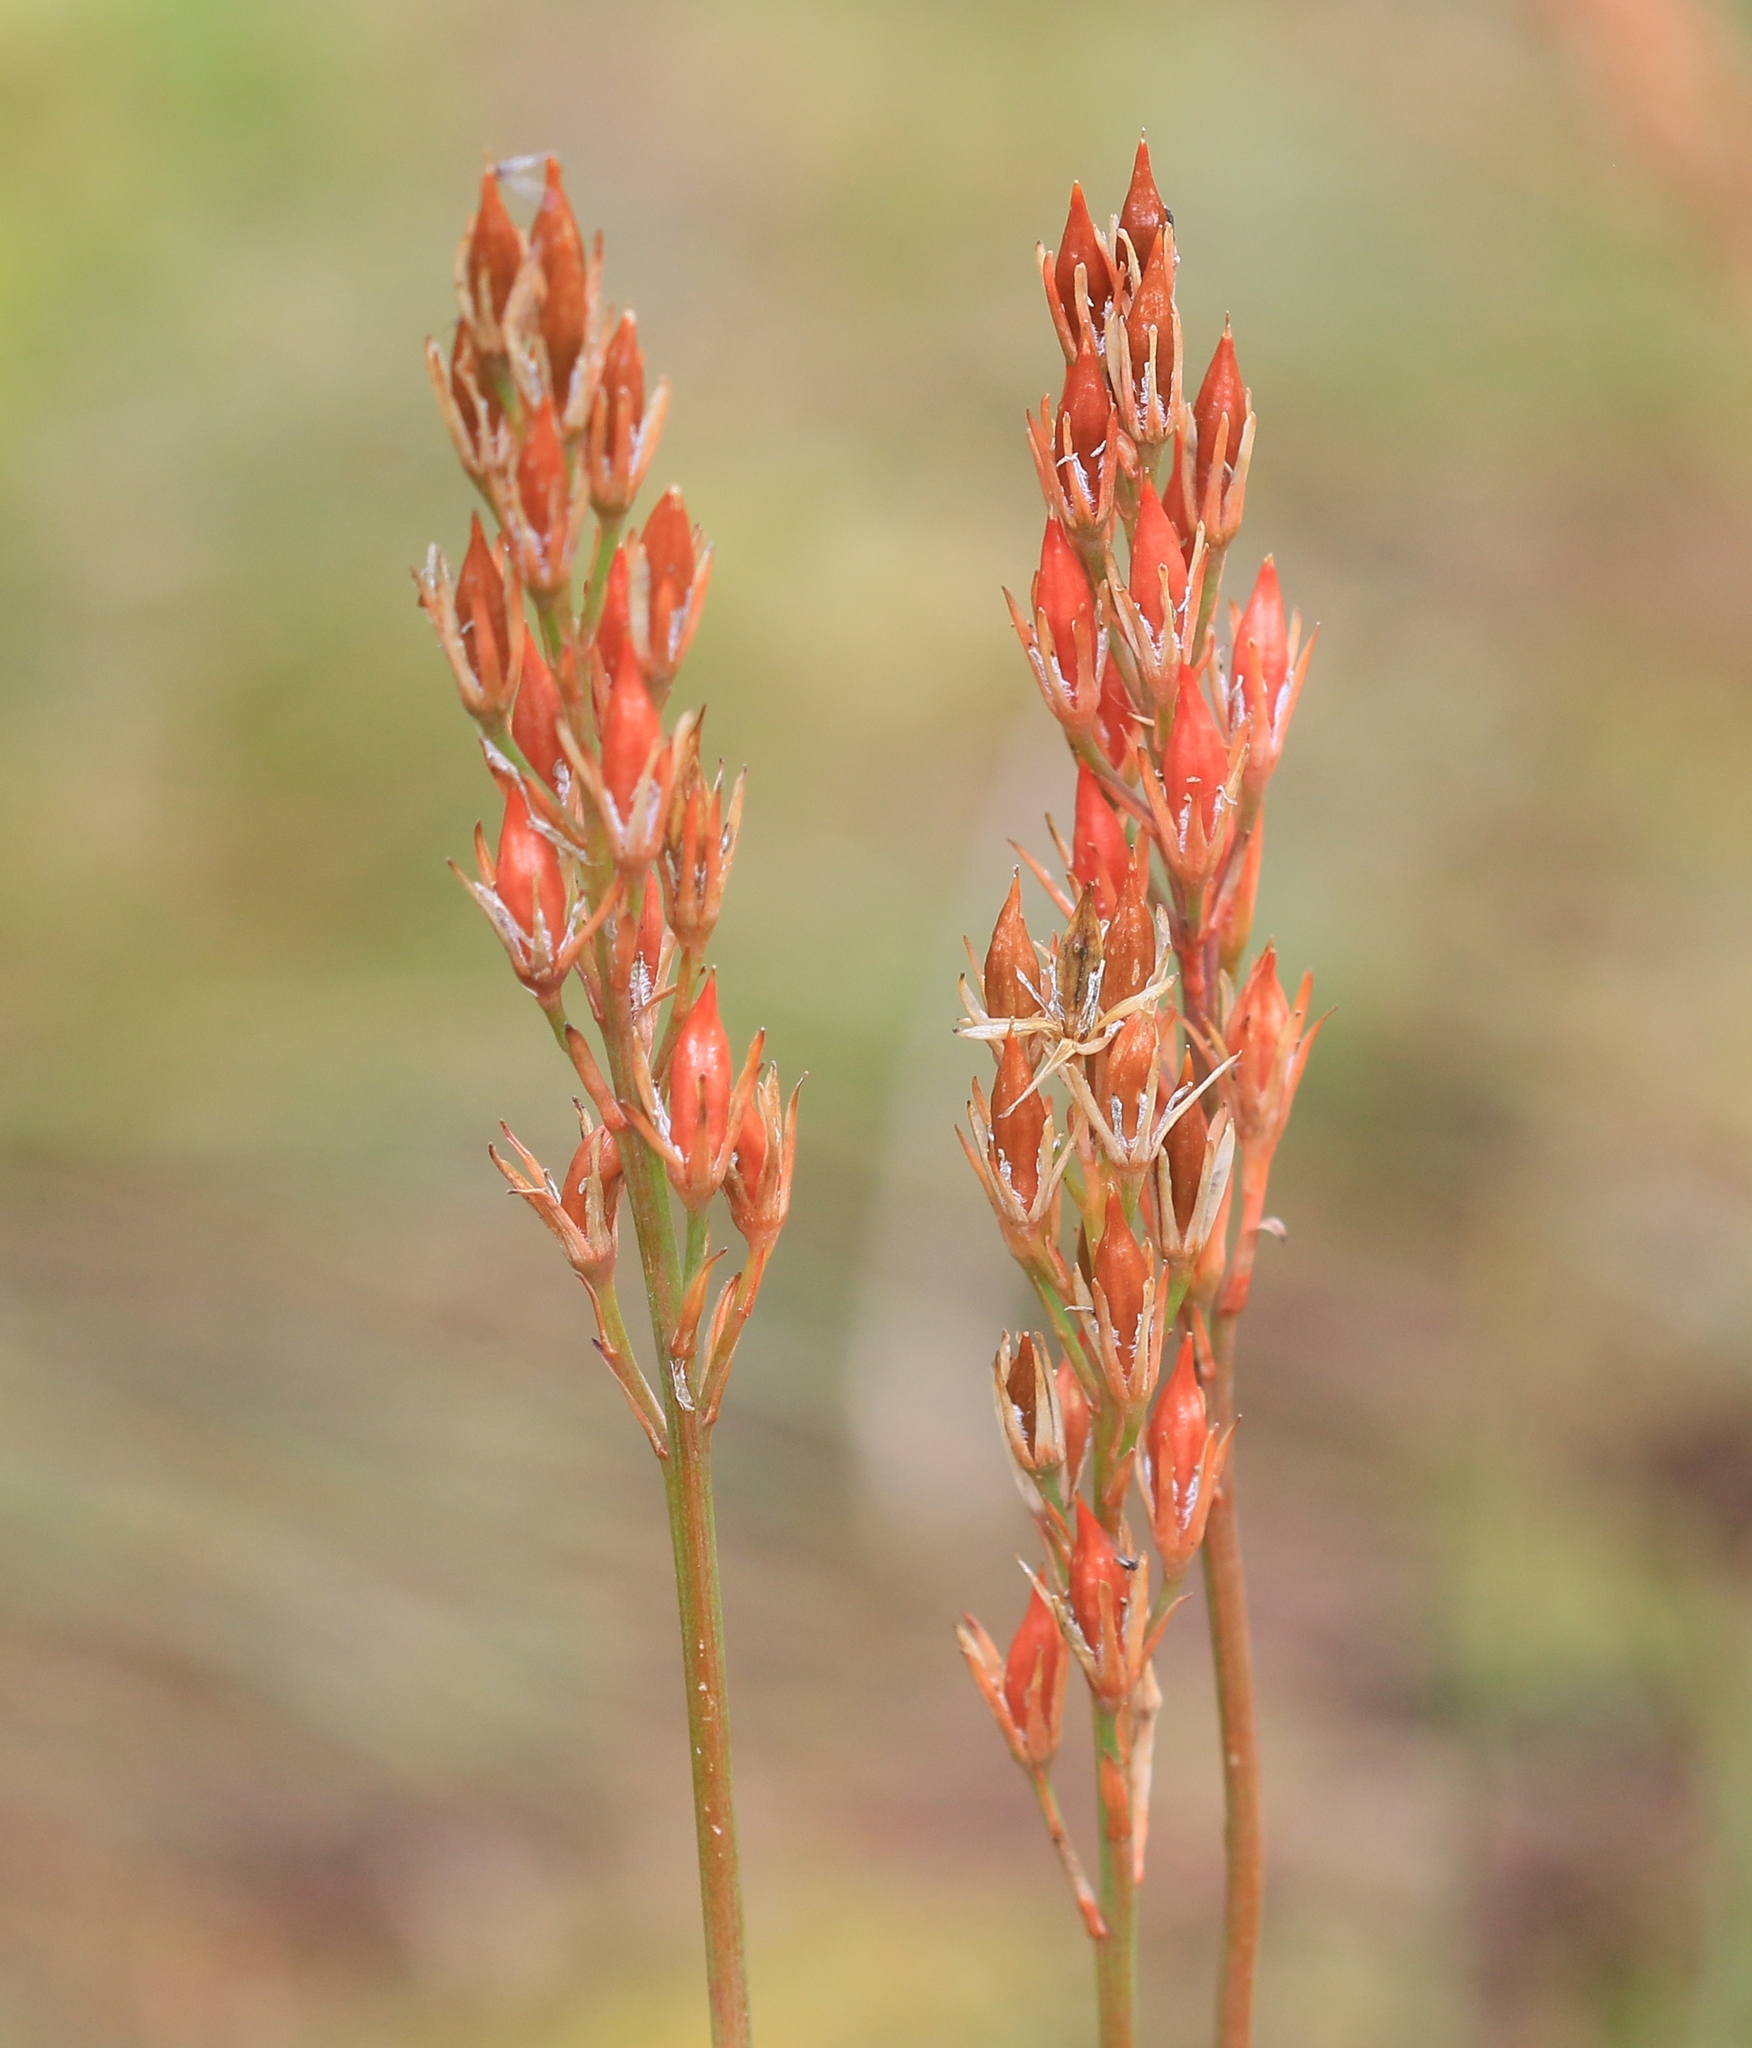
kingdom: Plantae
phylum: Tracheophyta
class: Liliopsida
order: Dioscoreales
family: Nartheciaceae
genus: Narthecium
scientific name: Narthecium ossifragum
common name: Bog asphodel
